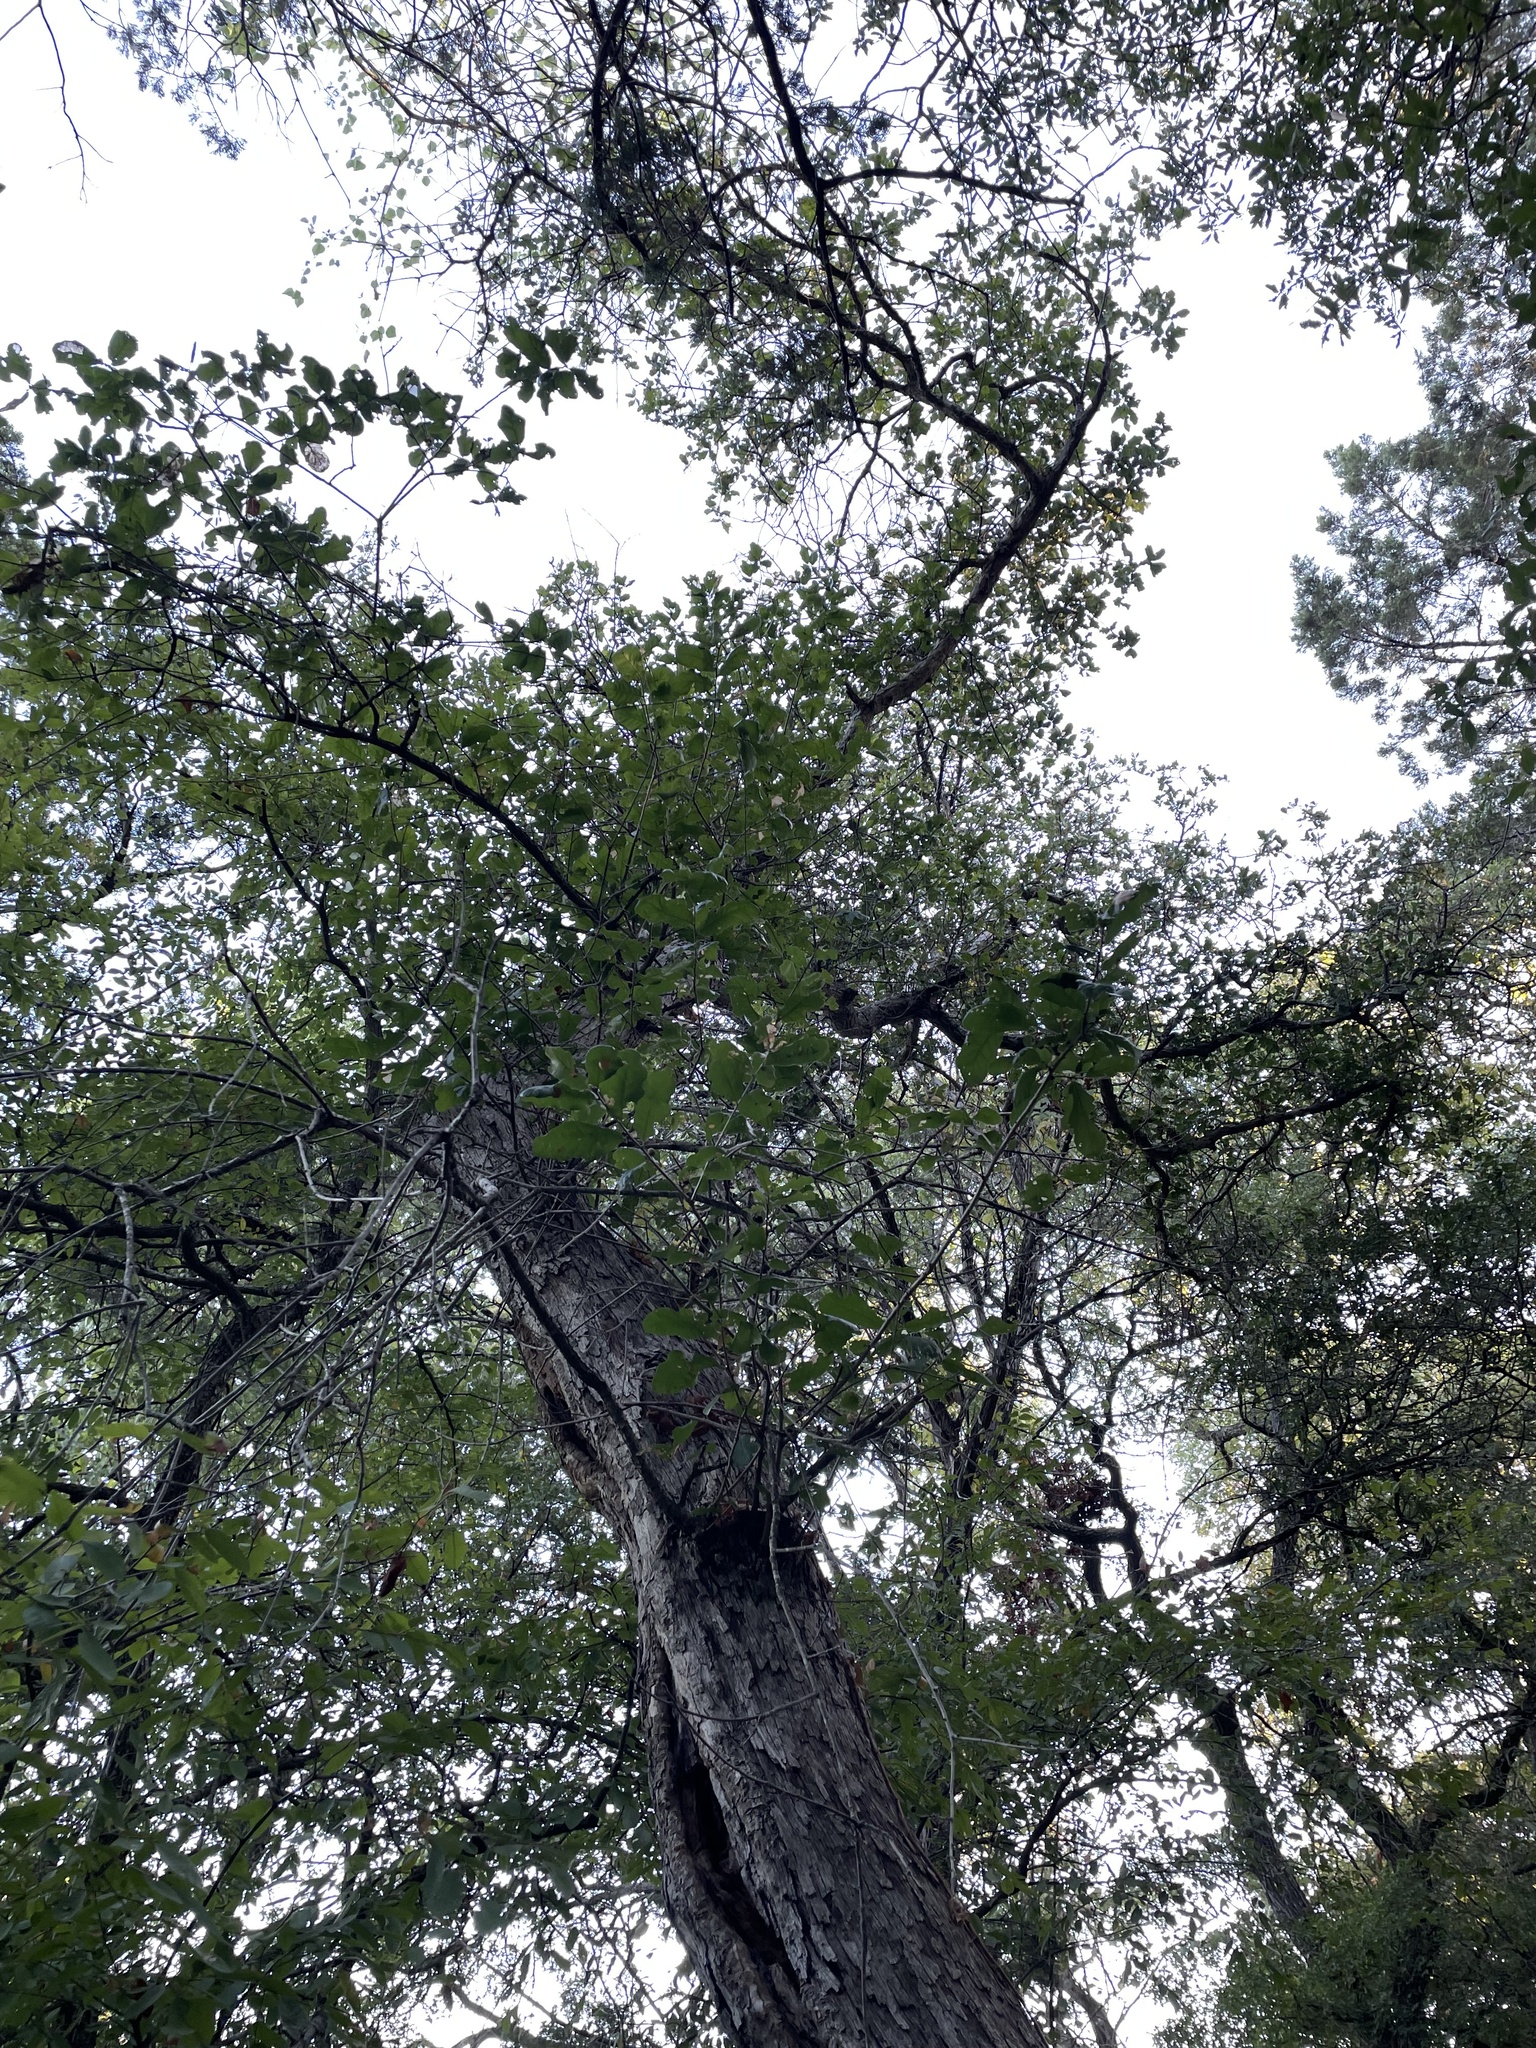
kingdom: Plantae
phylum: Tracheophyta
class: Magnoliopsida
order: Fagales
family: Fagaceae
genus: Quercus
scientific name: Quercus sinuata
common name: Durand oak
